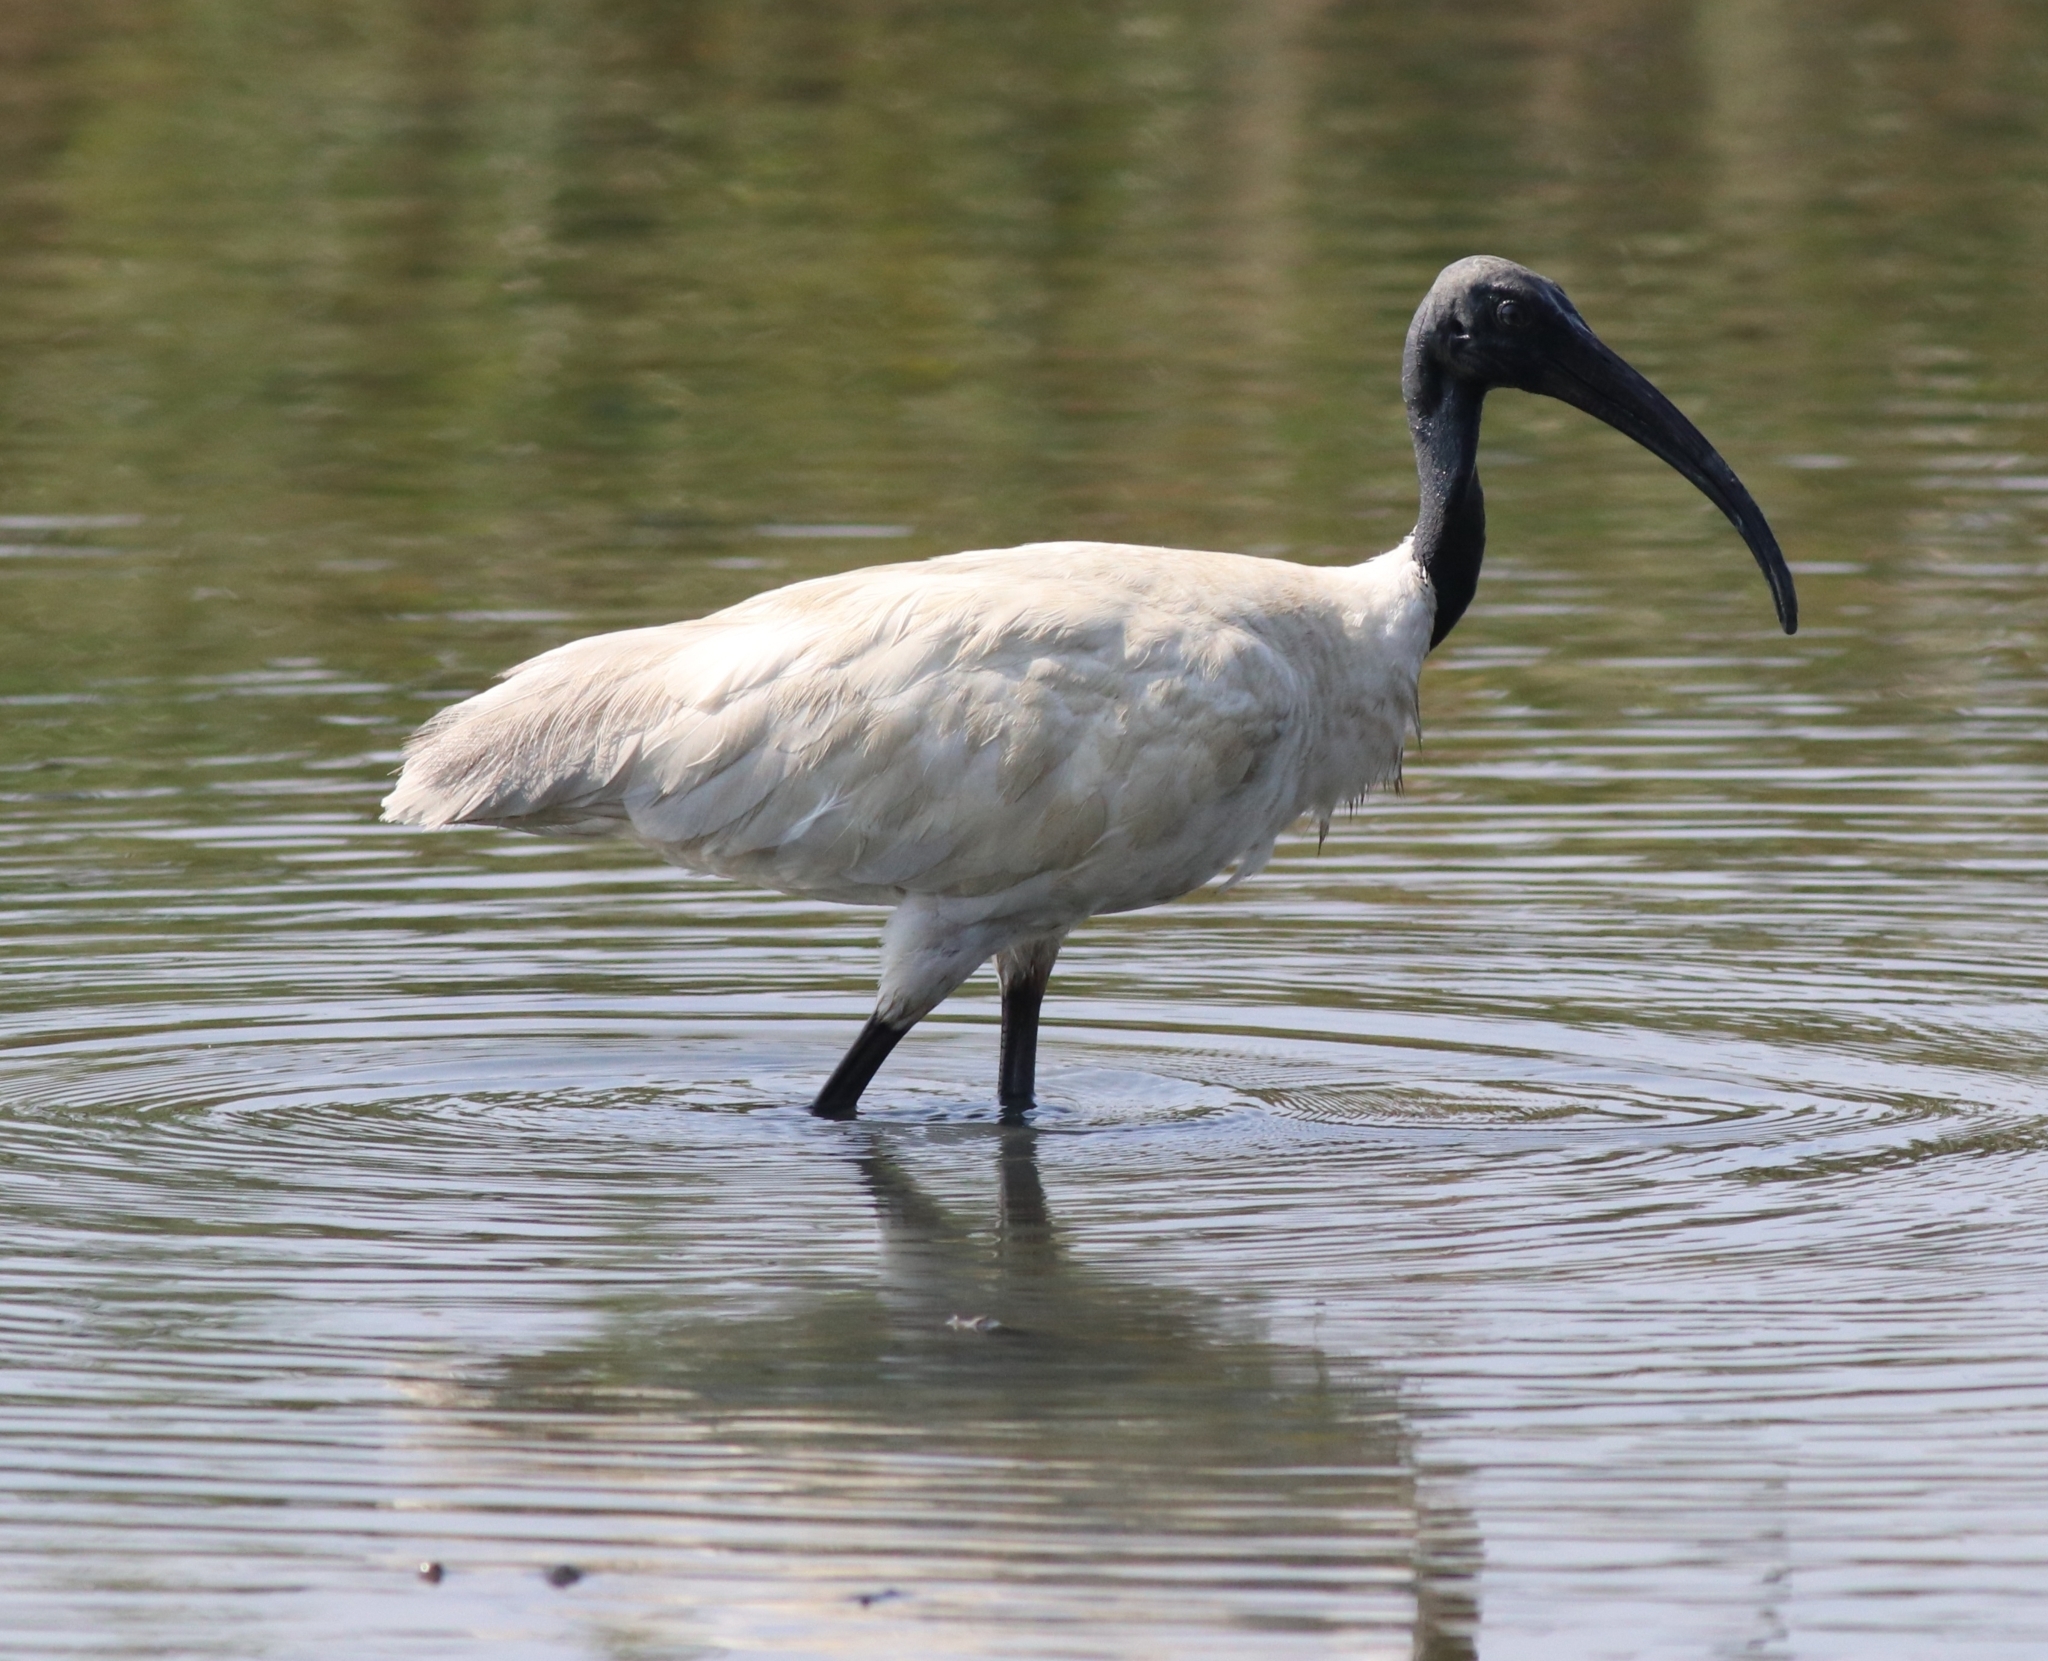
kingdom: Animalia
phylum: Chordata
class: Aves
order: Pelecaniformes
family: Threskiornithidae
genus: Threskiornis
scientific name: Threskiornis melanocephalus
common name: Black-headed ibis
